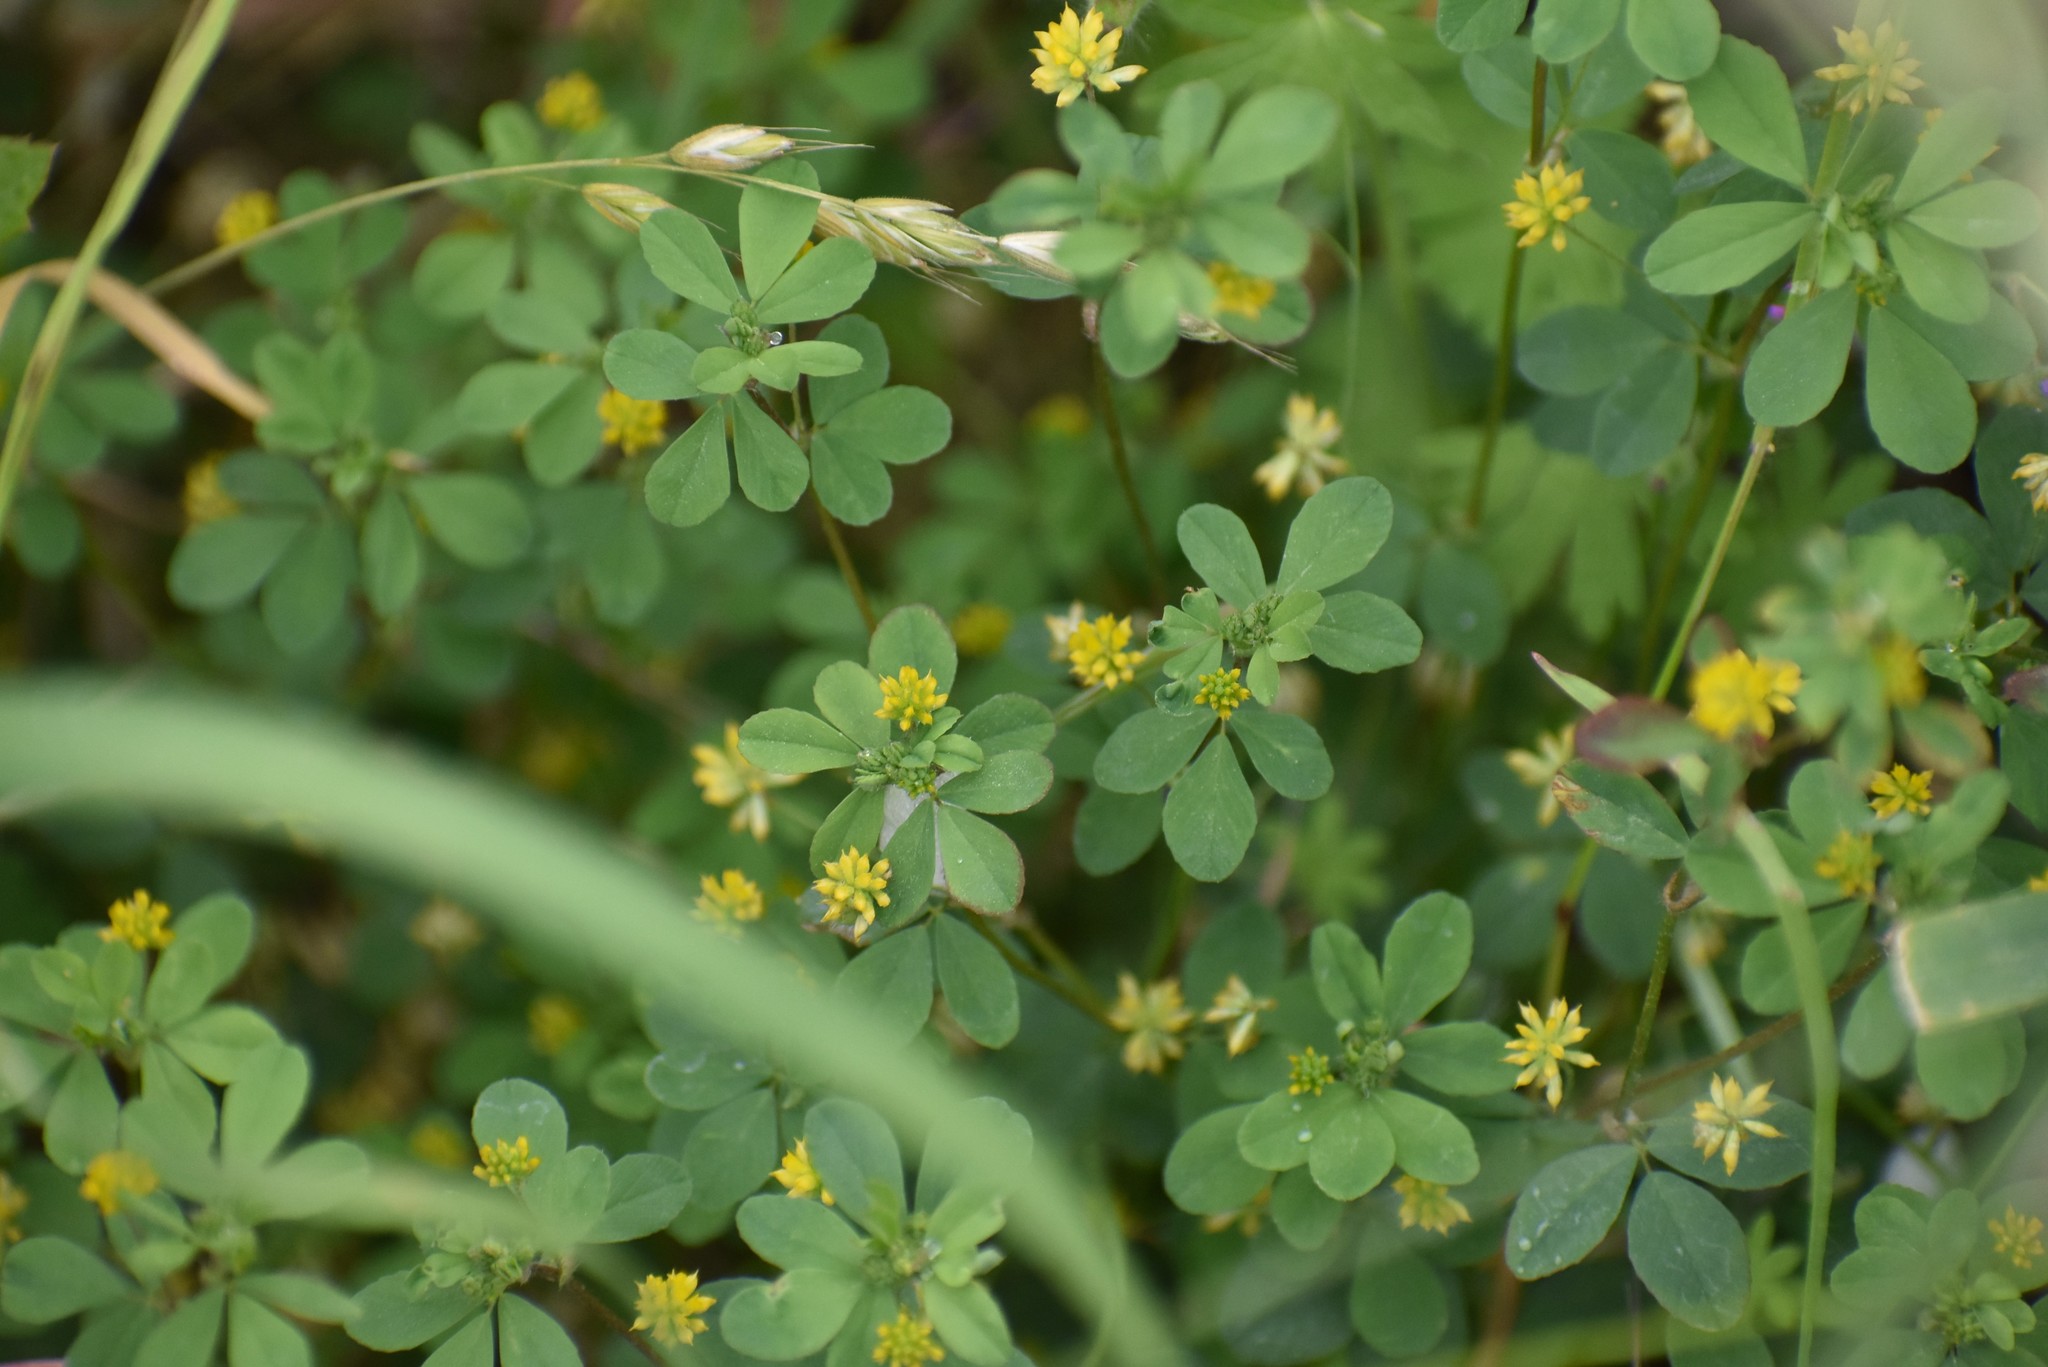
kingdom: Plantae
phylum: Tracheophyta
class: Magnoliopsida
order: Fabales
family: Fabaceae
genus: Trifolium
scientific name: Trifolium dubium
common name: Suckling clover
